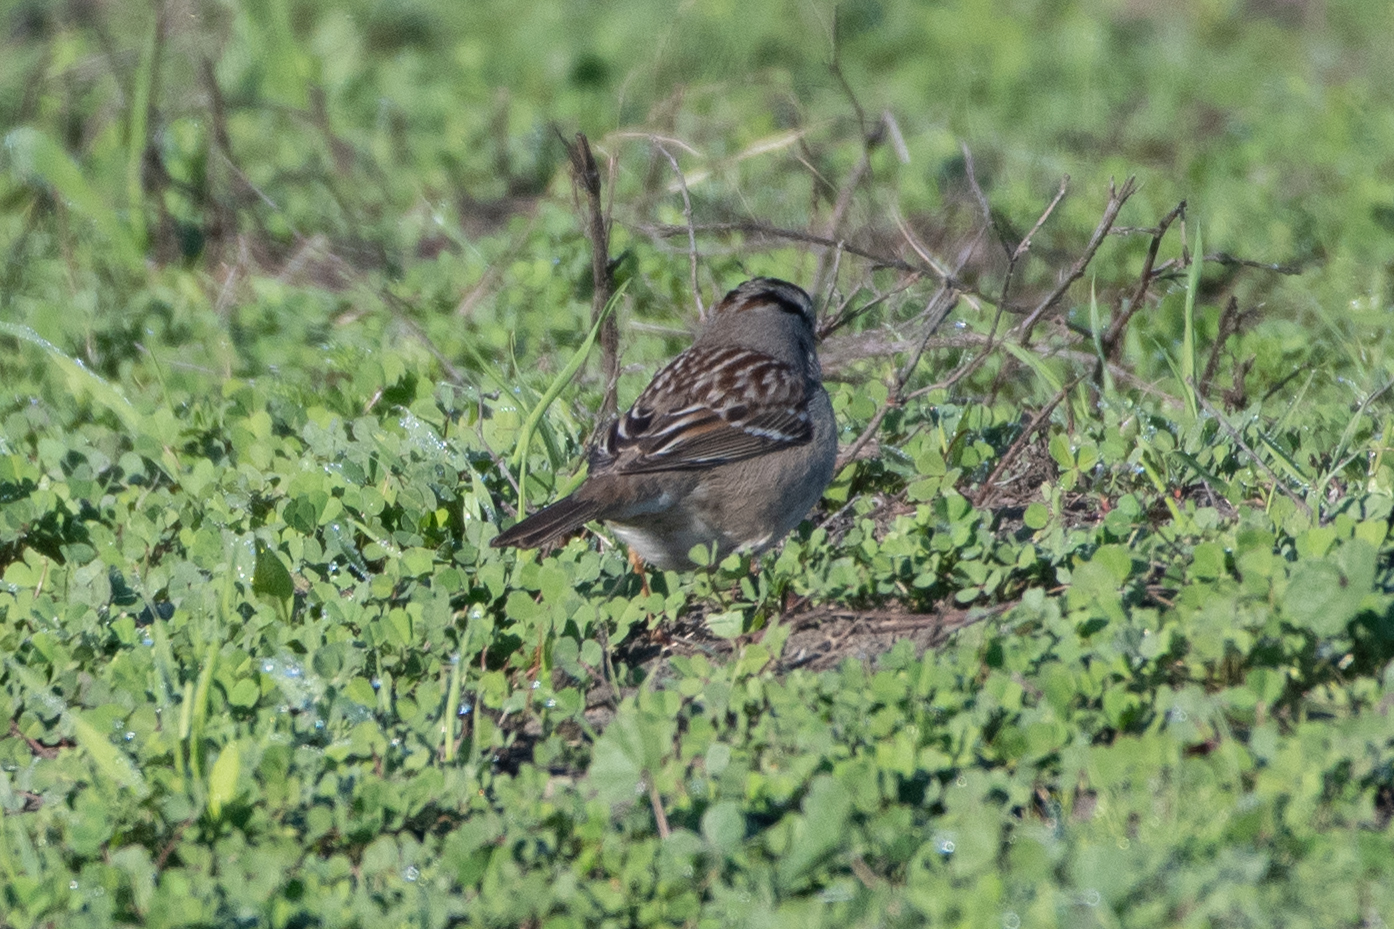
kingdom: Animalia
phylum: Chordata
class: Aves
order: Passeriformes
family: Passerellidae
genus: Zonotrichia
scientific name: Zonotrichia leucophrys
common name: White-crowned sparrow
